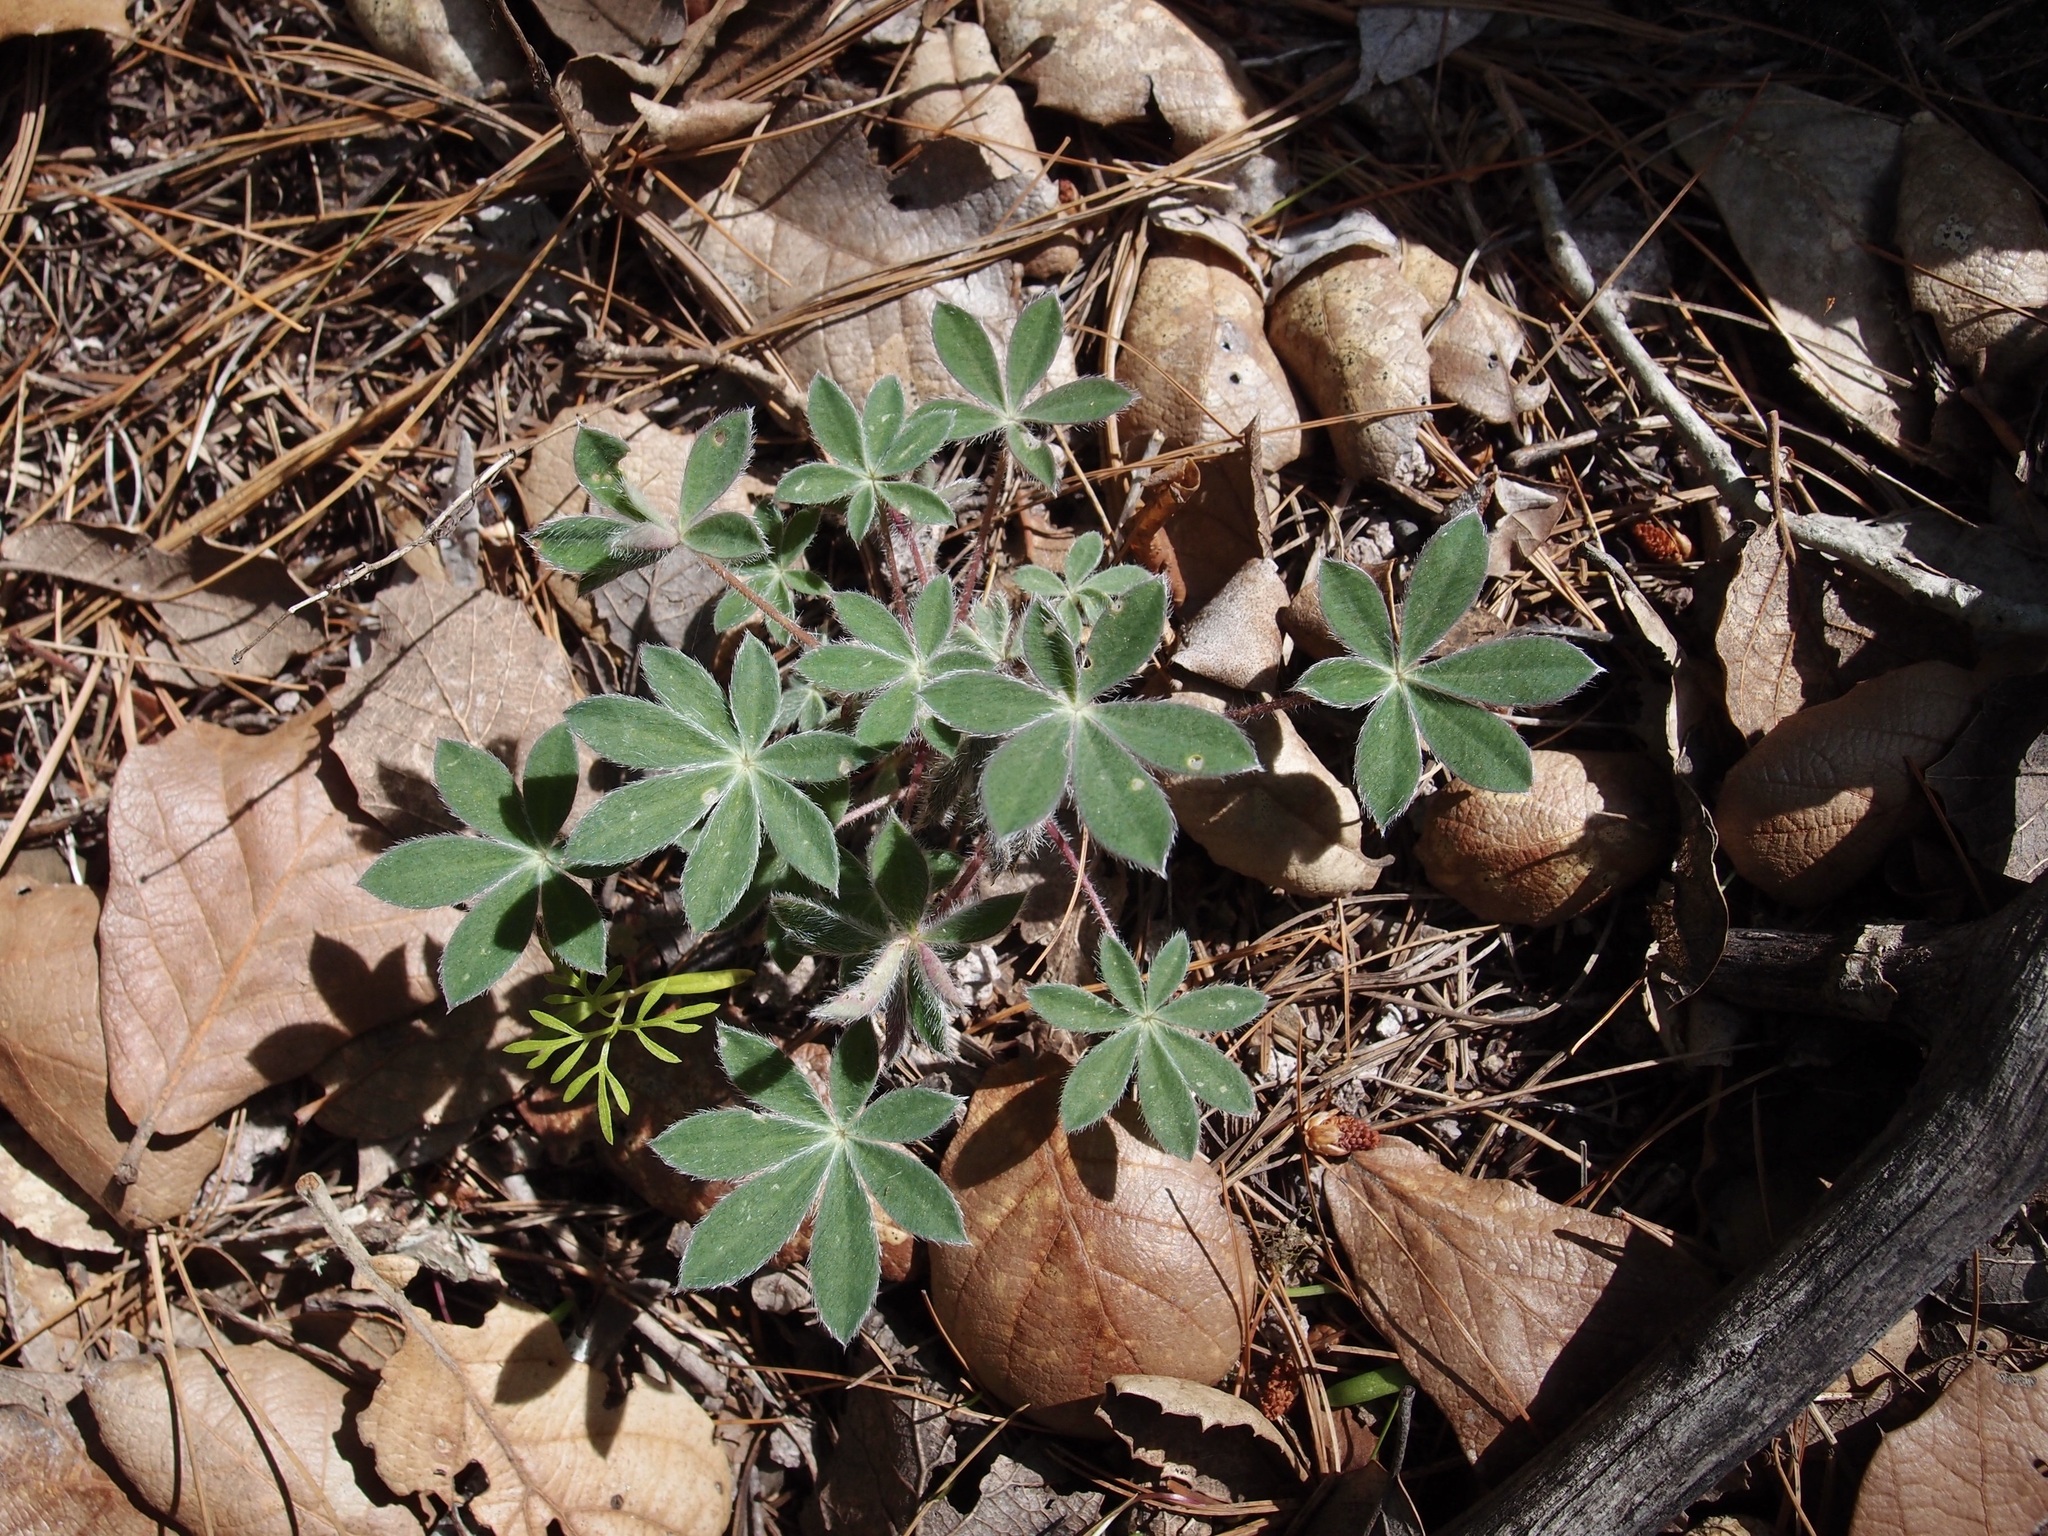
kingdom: Plantae
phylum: Tracheophyta
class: Magnoliopsida
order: Fabales
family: Fabaceae
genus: Lupinus
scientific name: Lupinus huachucanus
